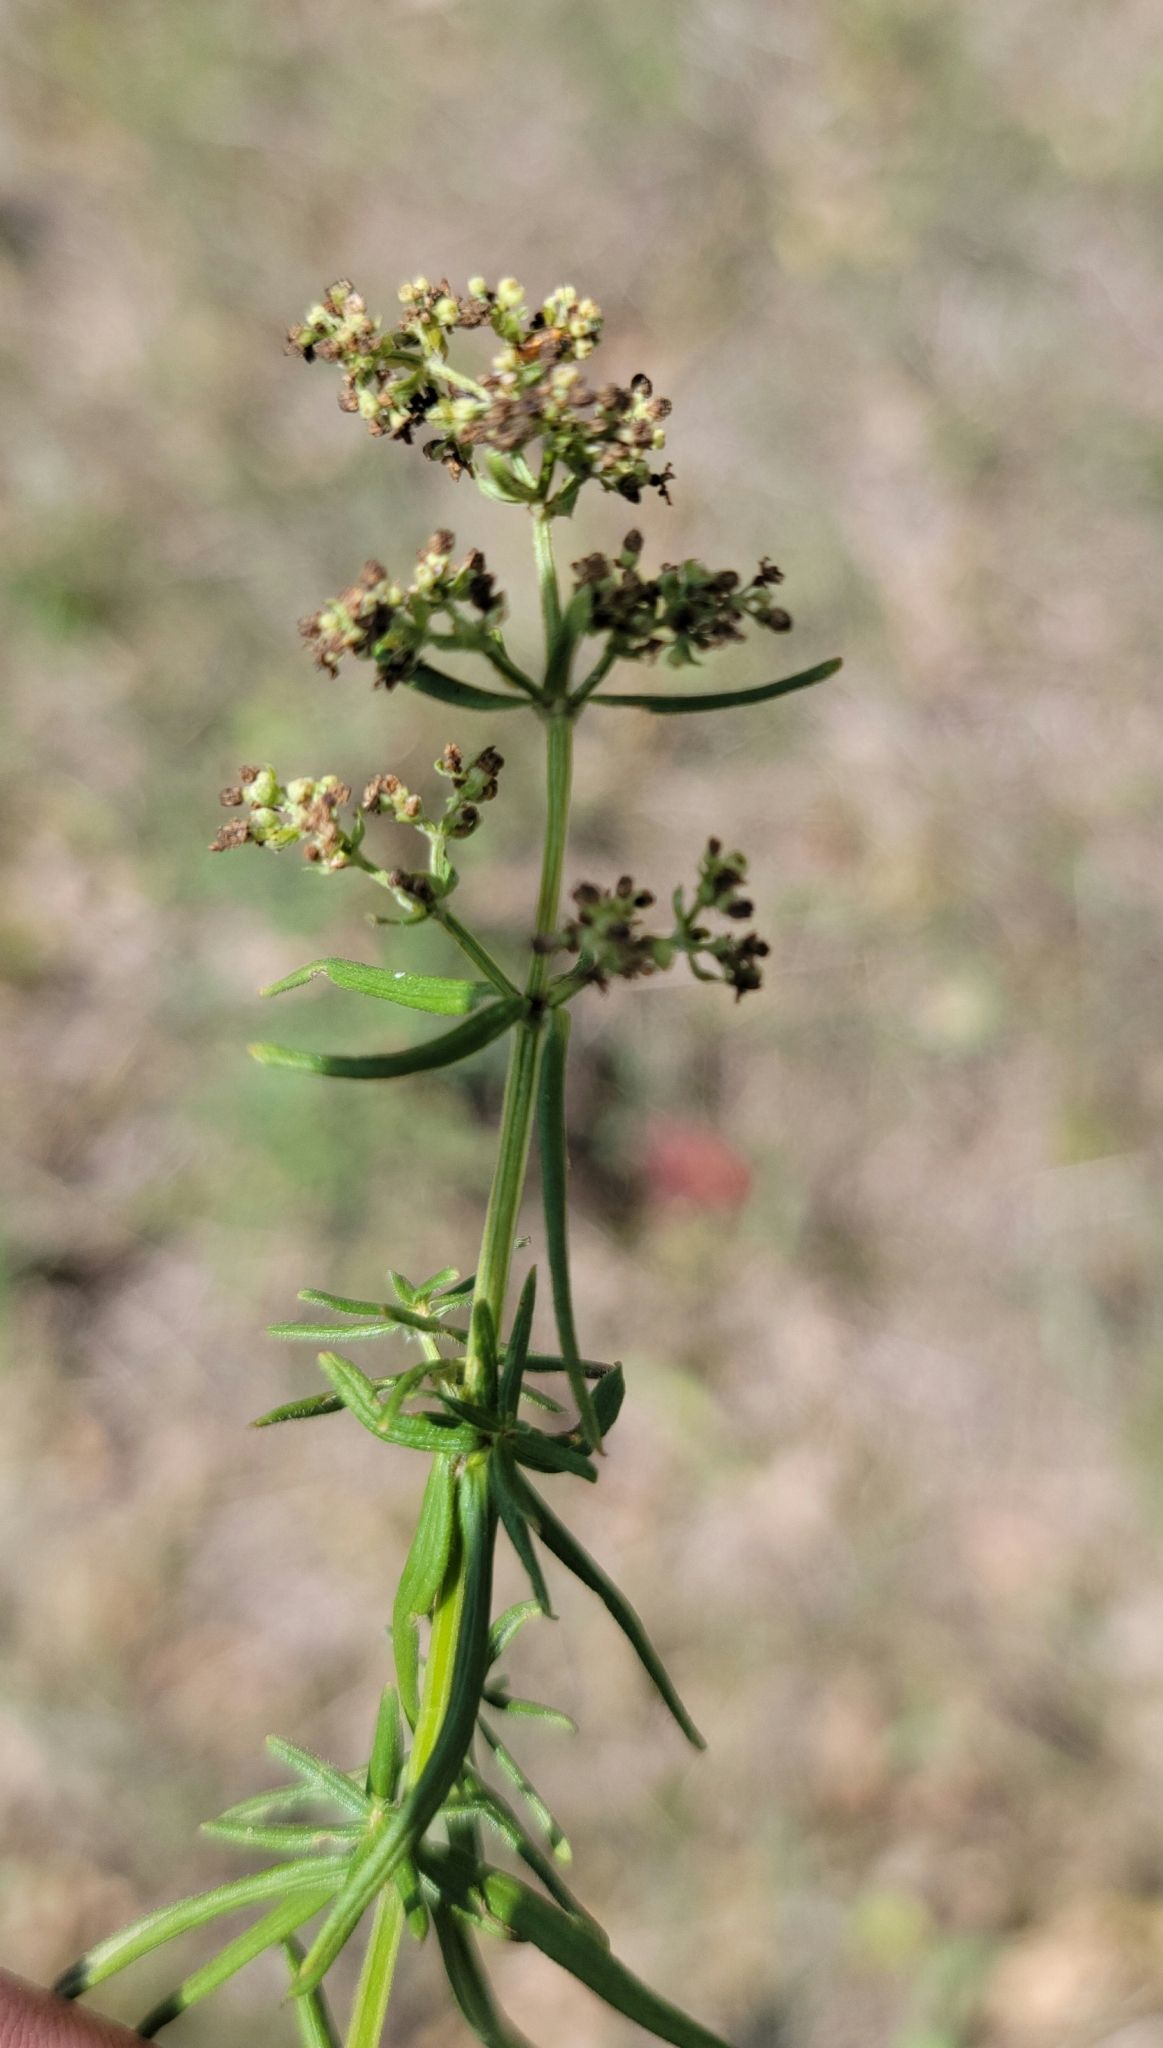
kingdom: Plantae
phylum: Tracheophyta
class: Magnoliopsida
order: Gentianales
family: Rubiaceae
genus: Galium
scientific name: Galium boreale
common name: Northern bedstraw
